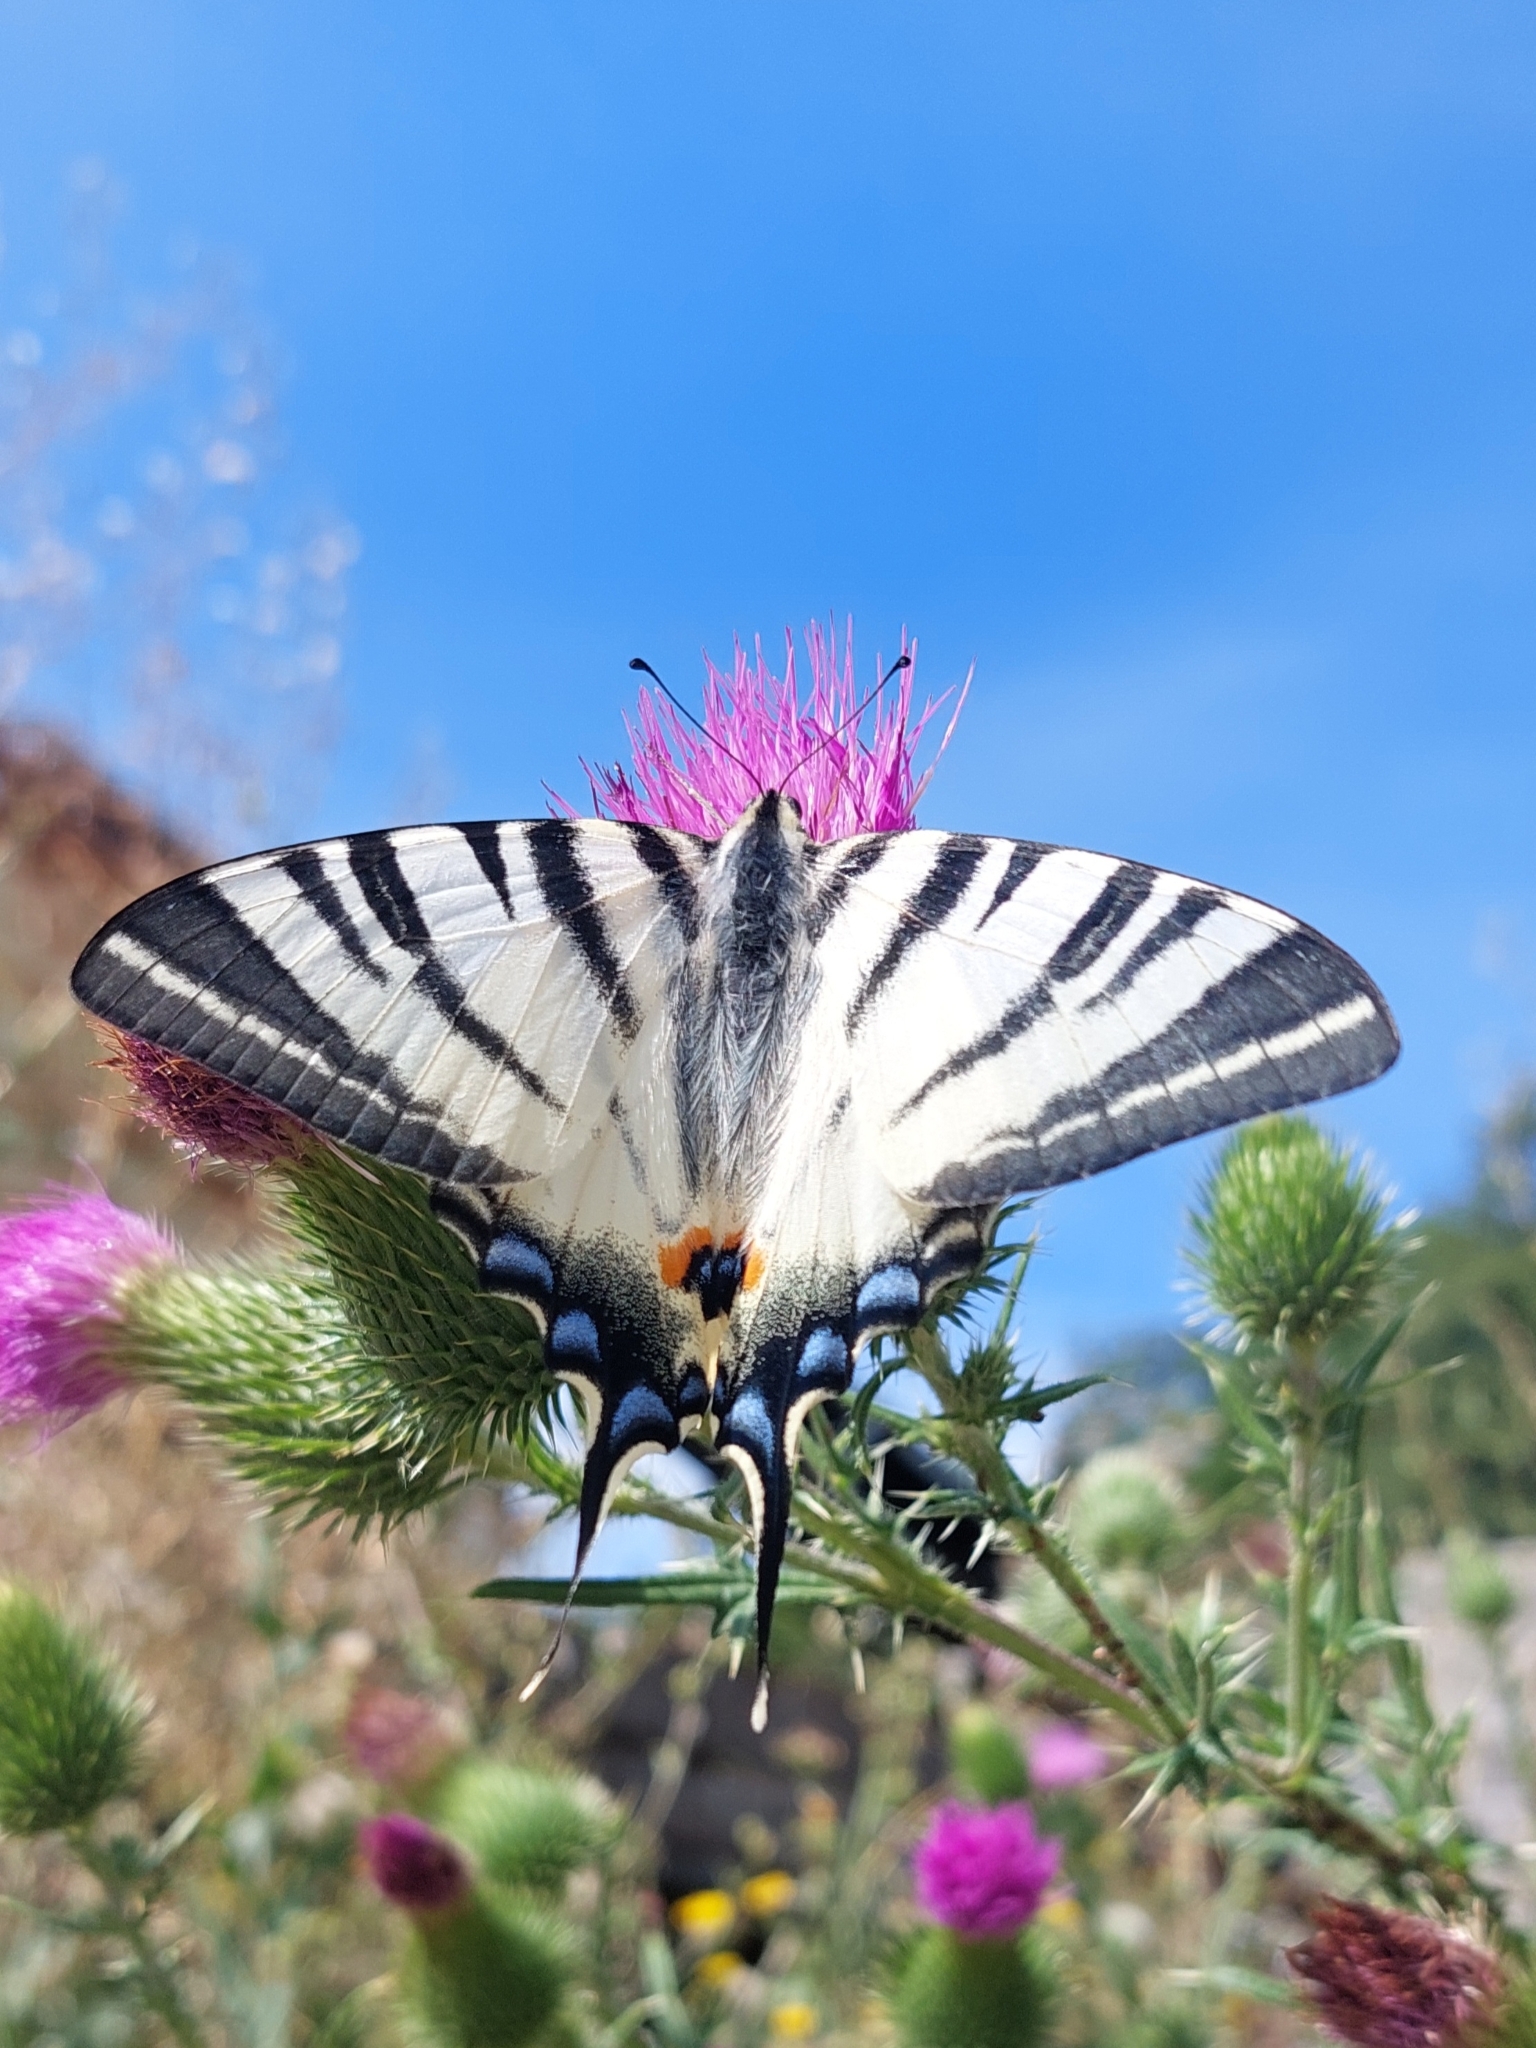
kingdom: Animalia
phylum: Arthropoda
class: Insecta
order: Lepidoptera
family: Papilionidae
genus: Iphiclides
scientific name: Iphiclides podalirius
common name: Scarce swallowtail
